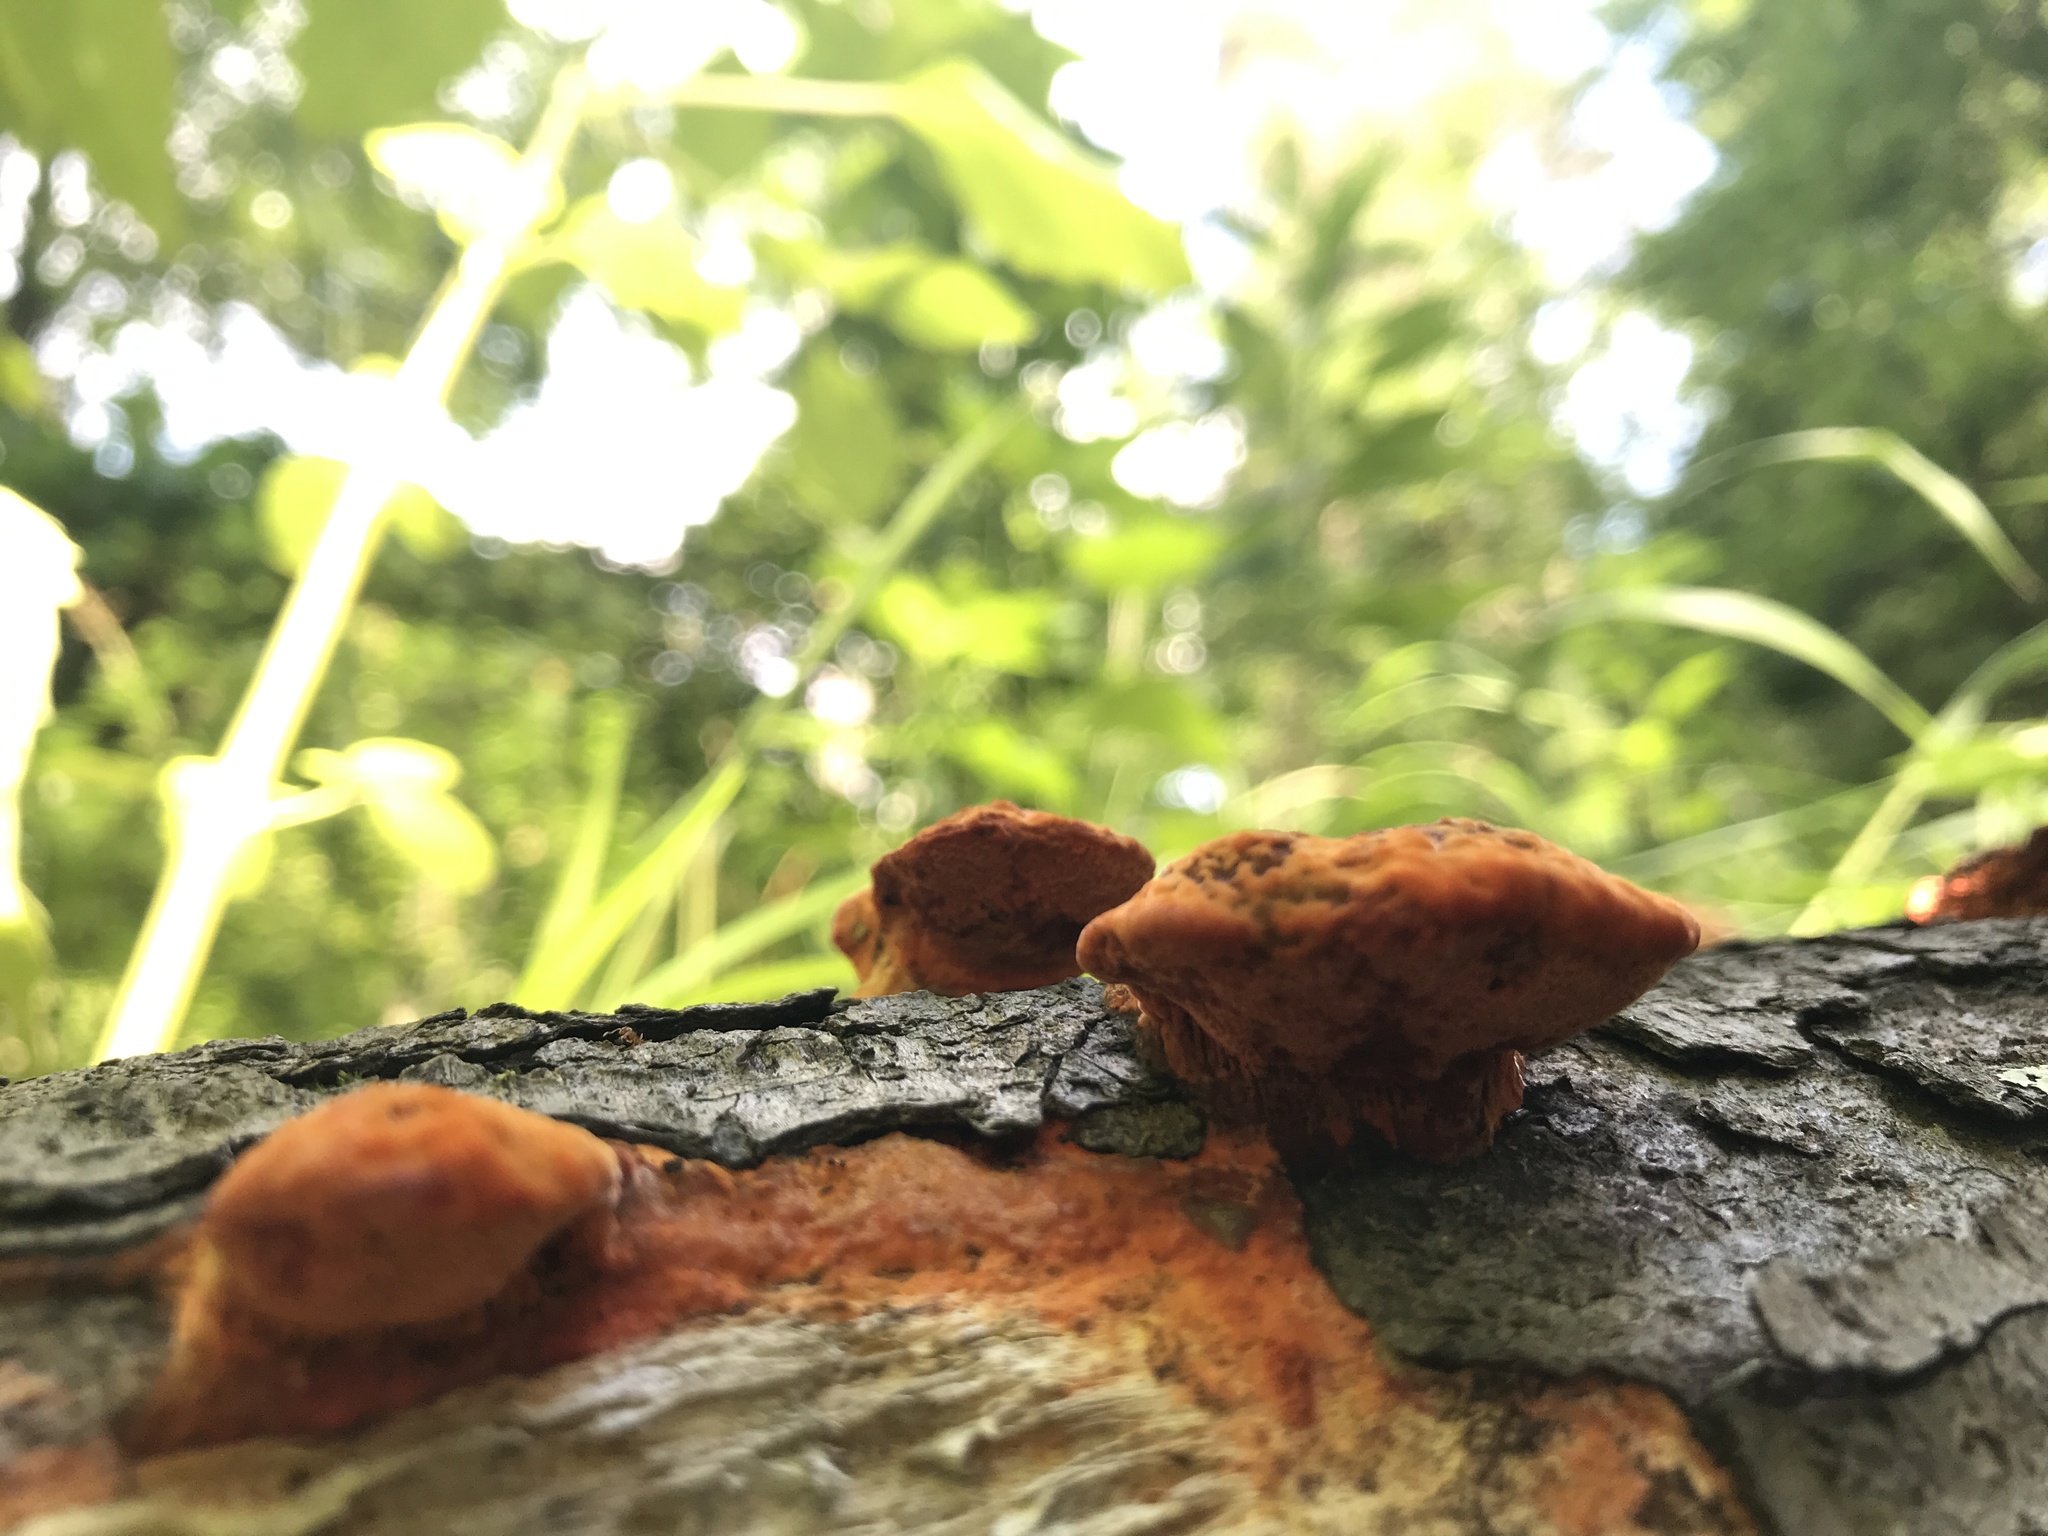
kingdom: Fungi
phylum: Basidiomycota
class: Agaricomycetes
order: Polyporales
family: Polyporaceae
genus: Trametes
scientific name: Trametes cinnabarina
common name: Northern cinnabar polypore
